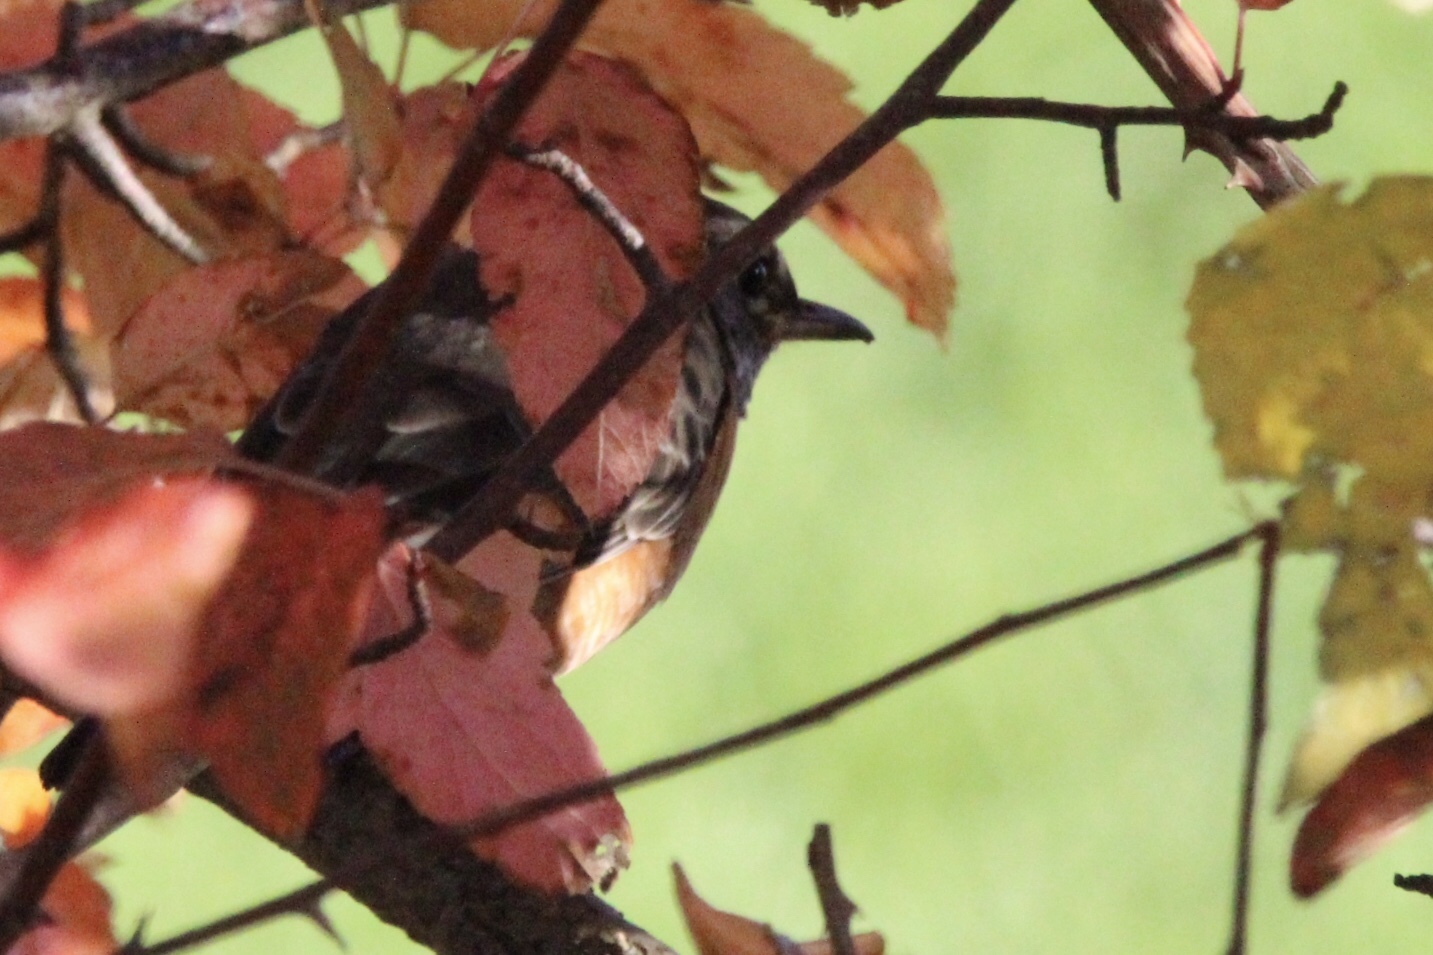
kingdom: Animalia
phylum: Chordata
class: Aves
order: Passeriformes
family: Turdidae
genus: Turdus
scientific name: Turdus migratorius
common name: American robin
